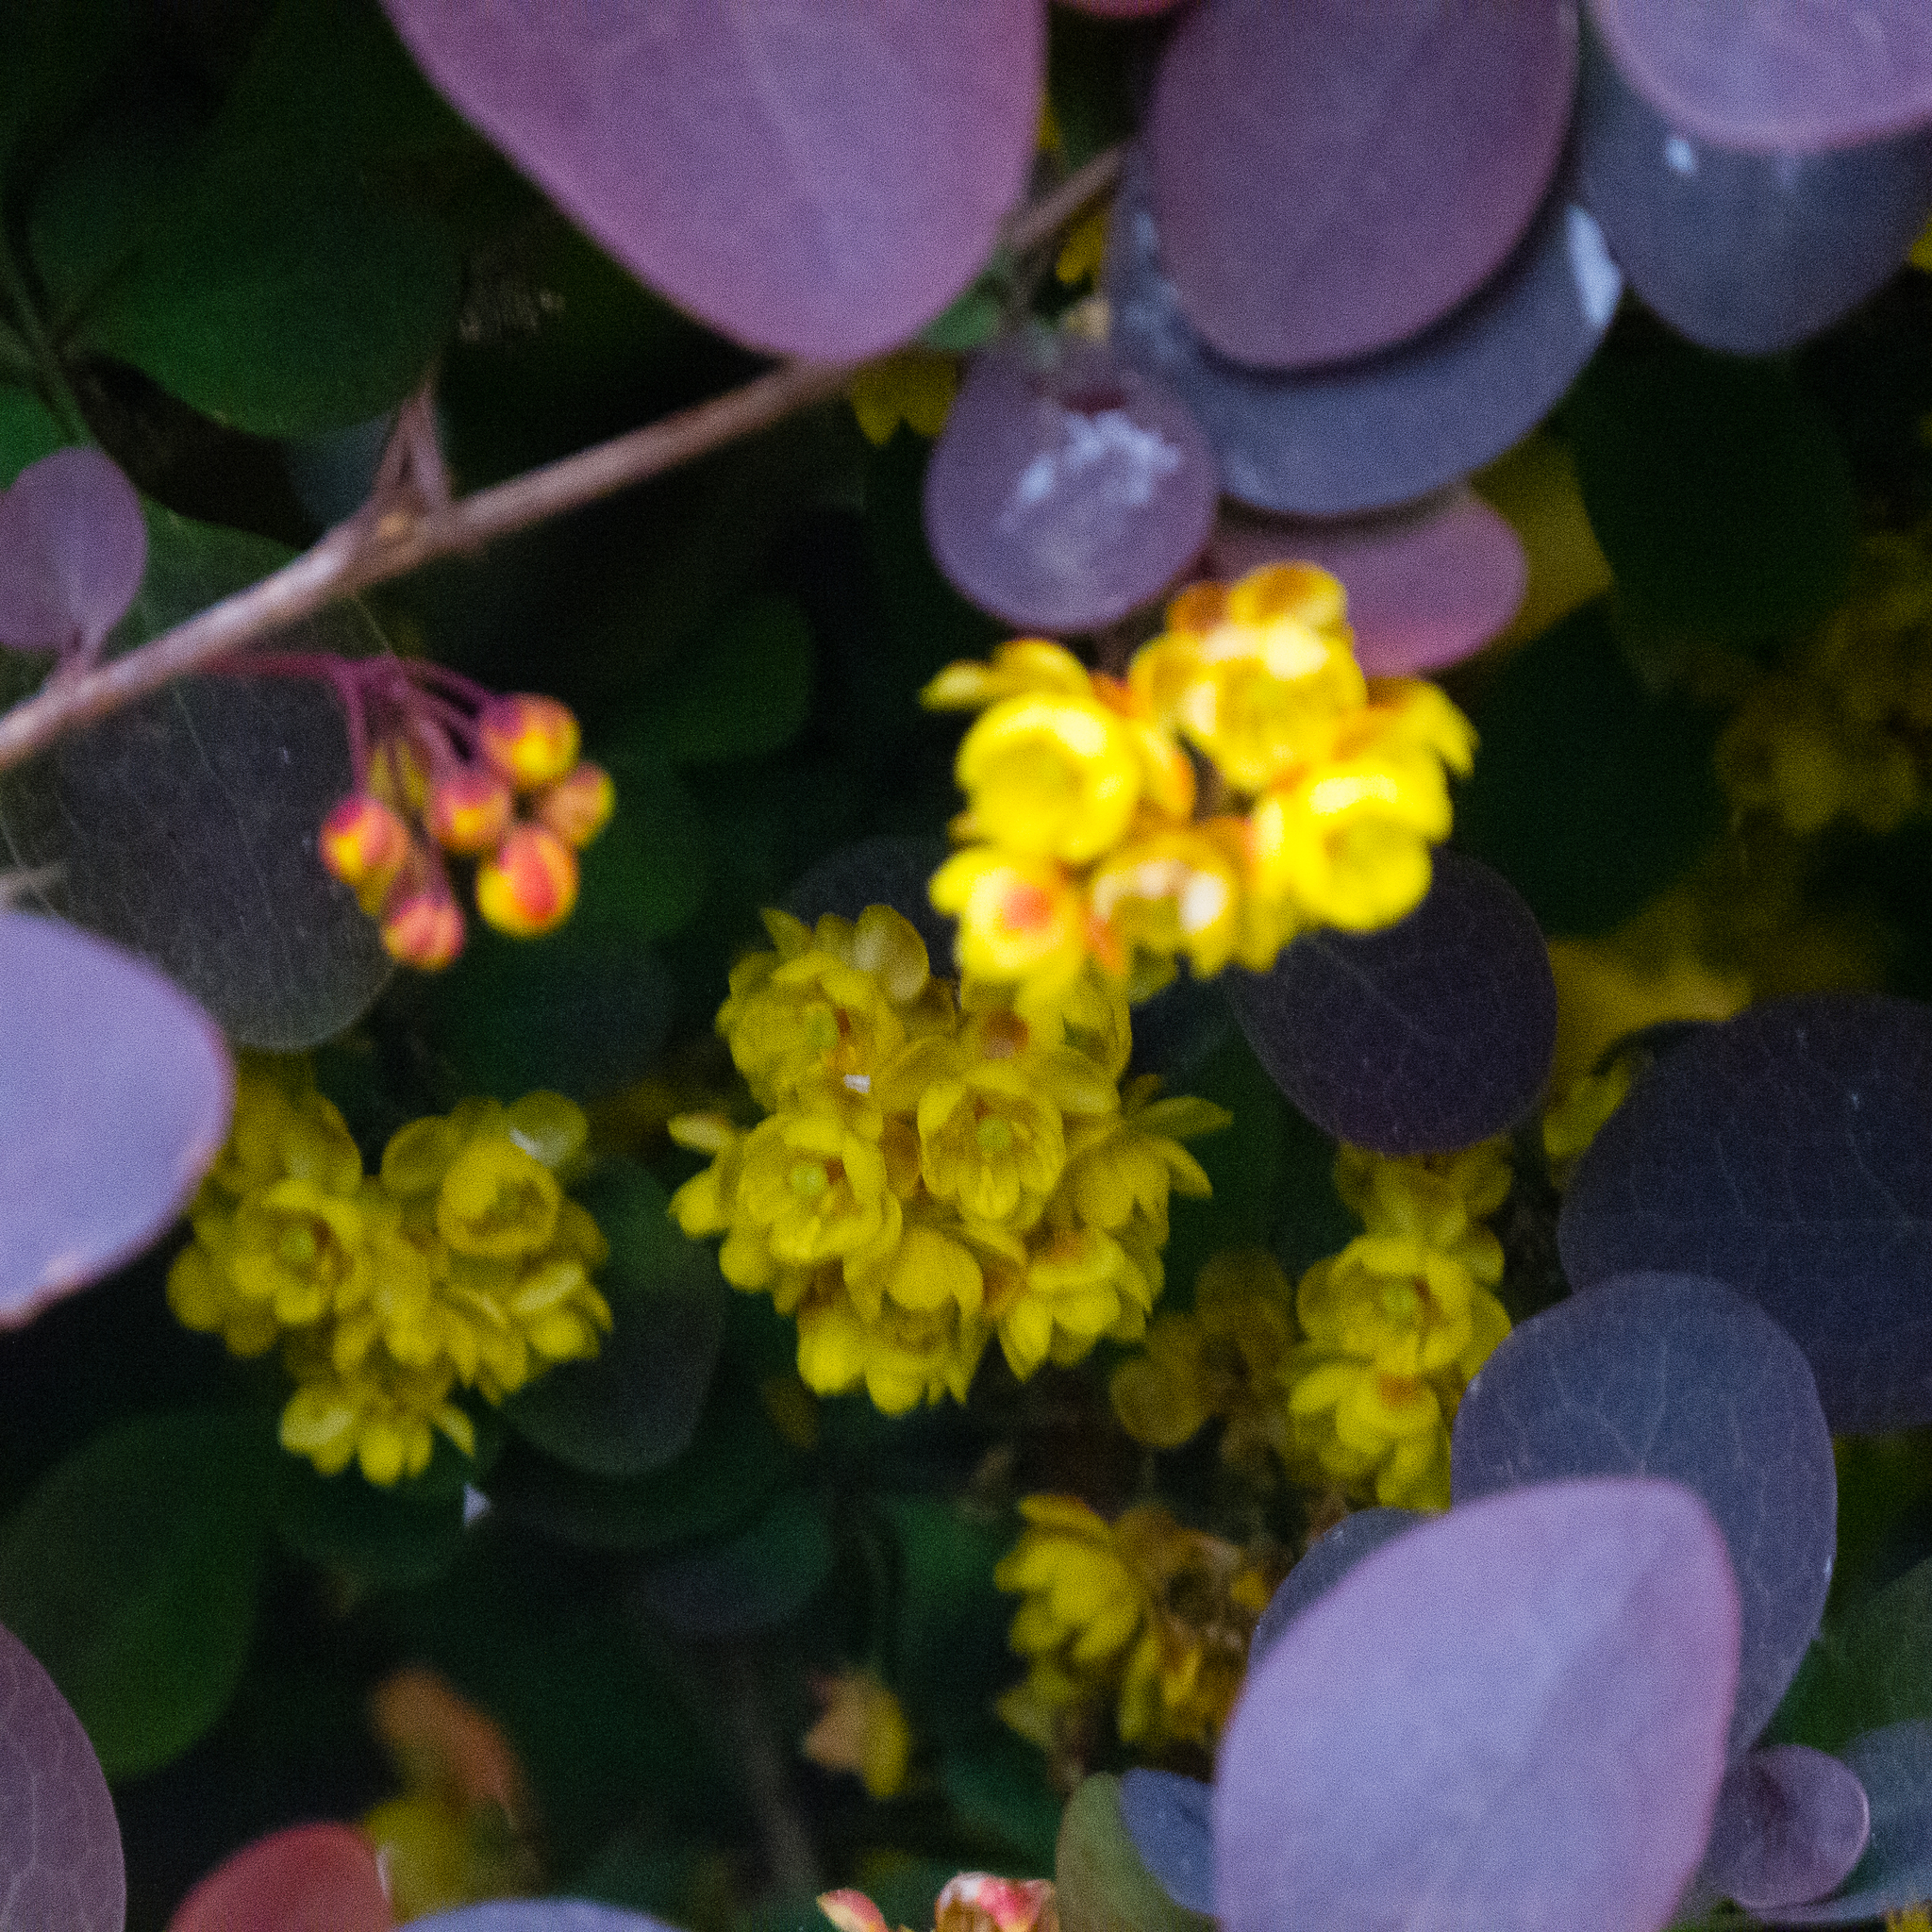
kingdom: Plantae
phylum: Tracheophyta
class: Magnoliopsida
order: Ranunculales
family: Berberidaceae
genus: Berberis
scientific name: Berberis thunbergii
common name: Japanese barberry
